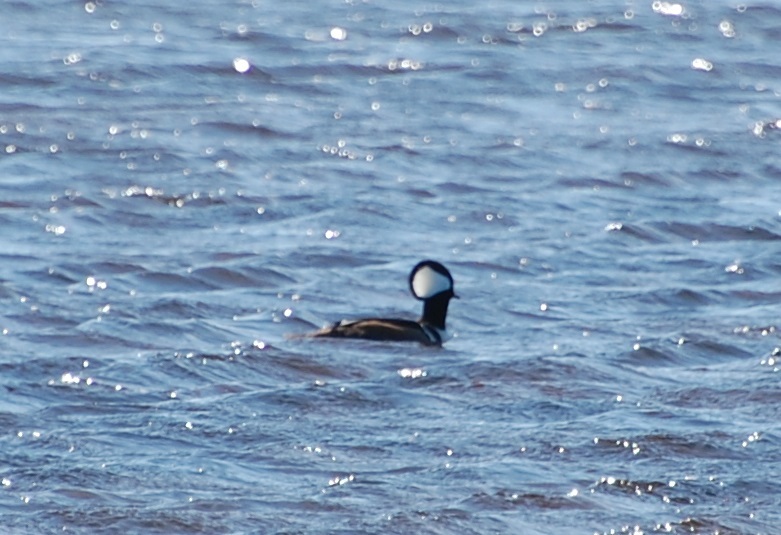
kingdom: Animalia
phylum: Chordata
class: Aves
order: Anseriformes
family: Anatidae
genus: Lophodytes
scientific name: Lophodytes cucullatus
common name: Hooded merganser
